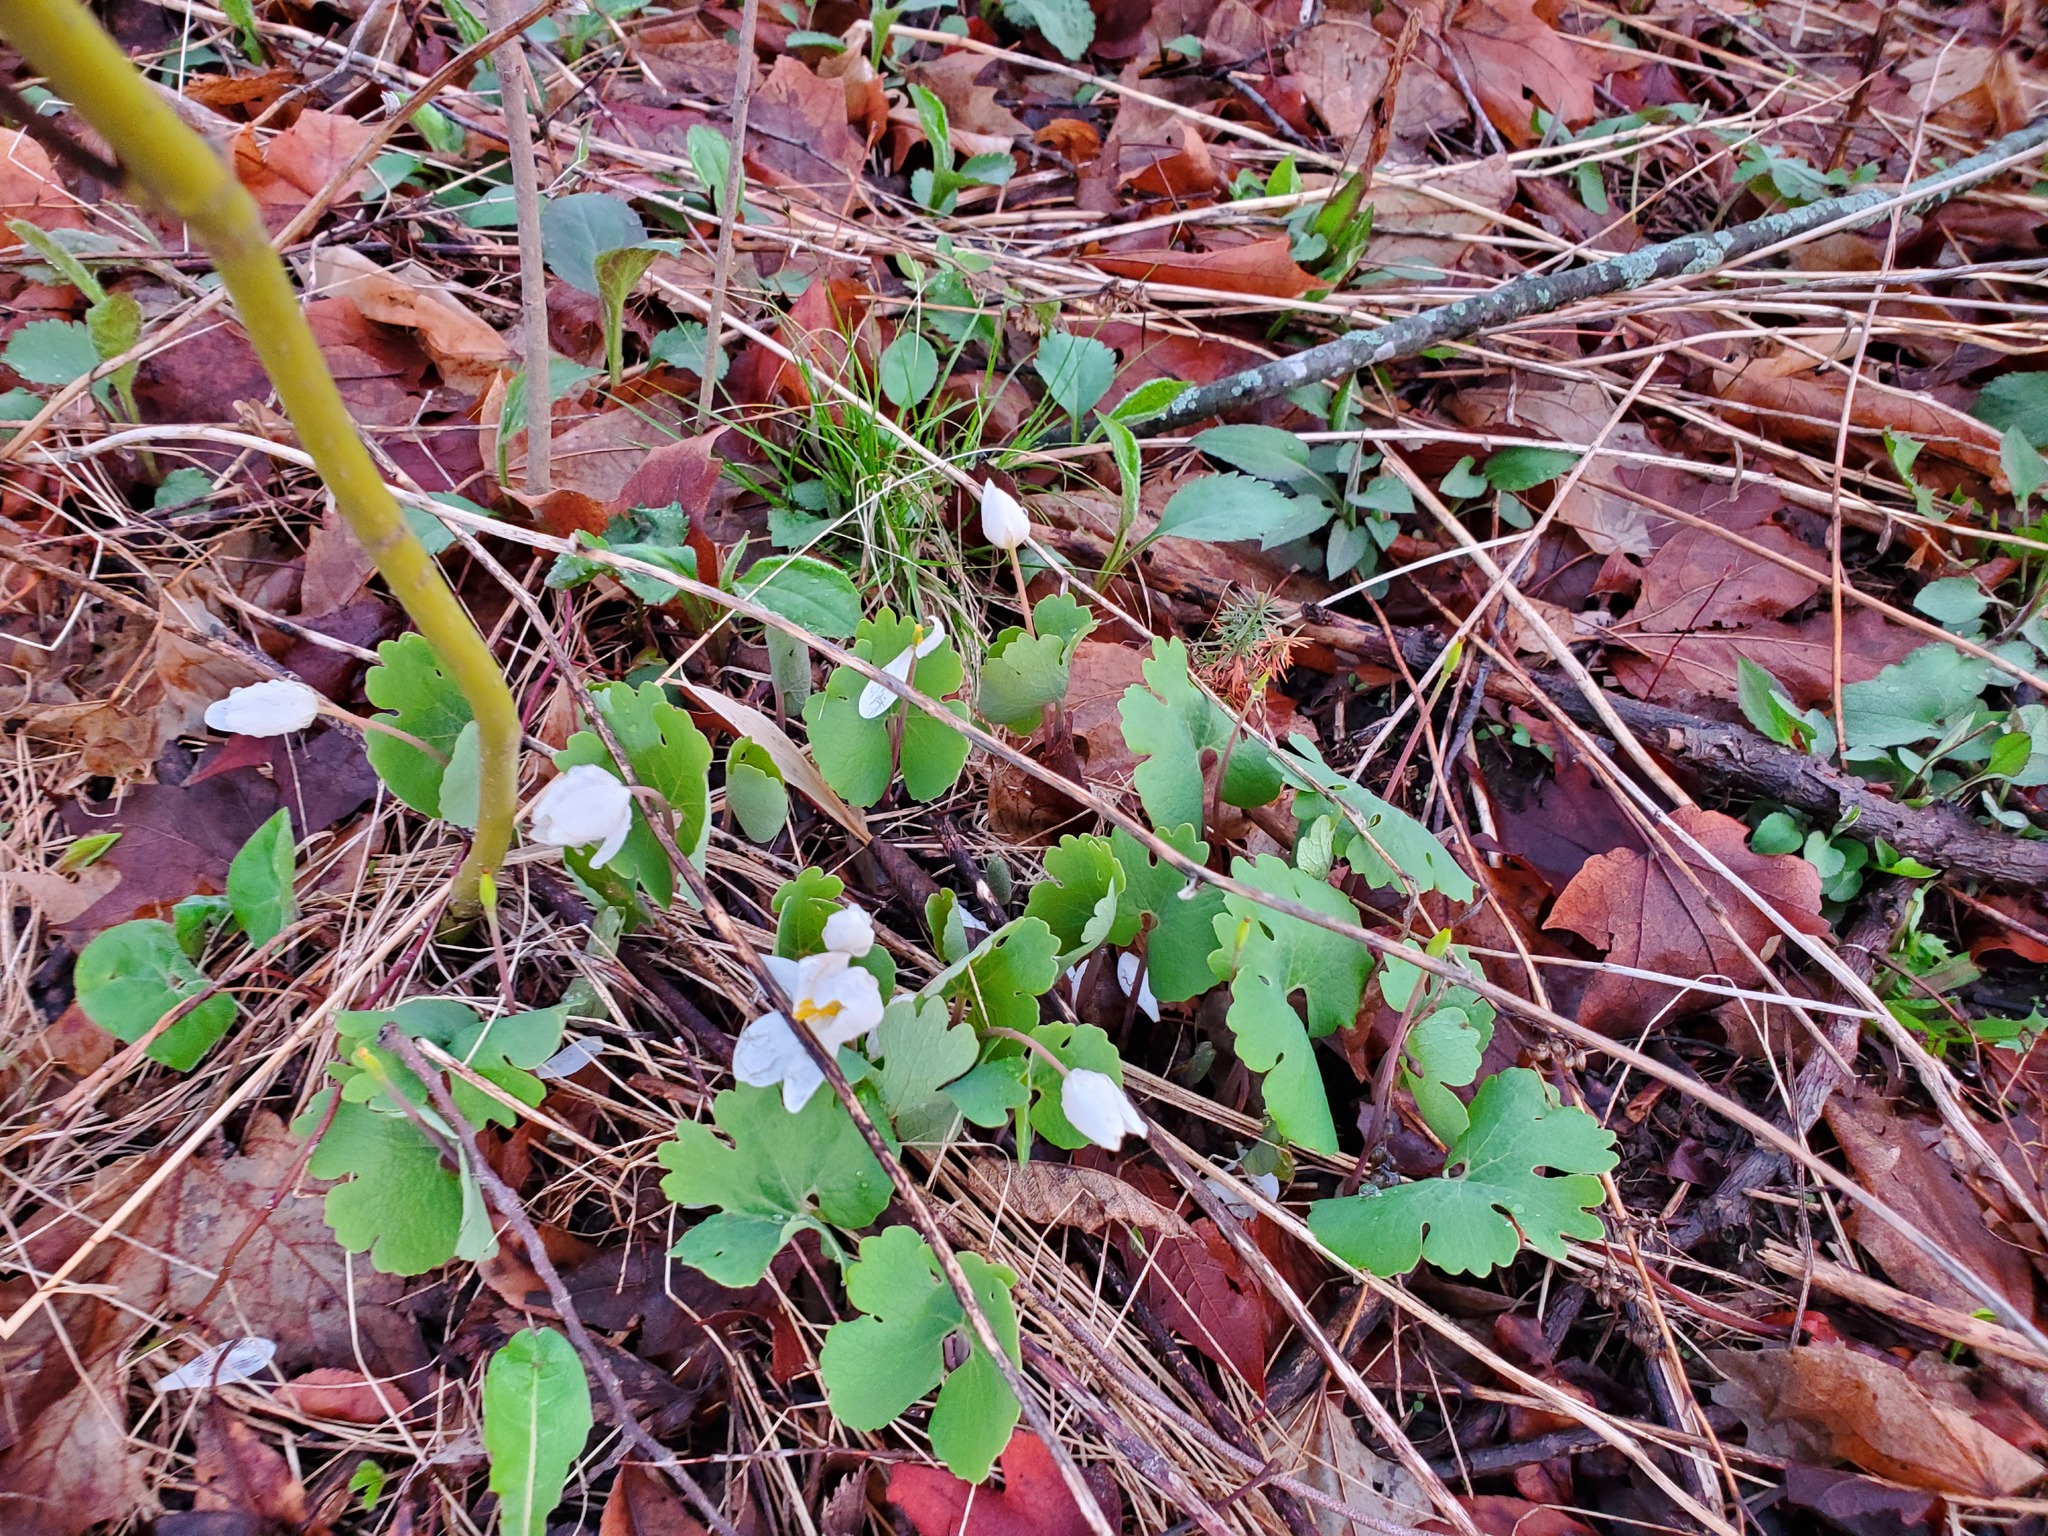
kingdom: Plantae
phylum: Tracheophyta
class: Magnoliopsida
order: Ranunculales
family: Papaveraceae
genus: Sanguinaria
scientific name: Sanguinaria canadensis
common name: Bloodroot
